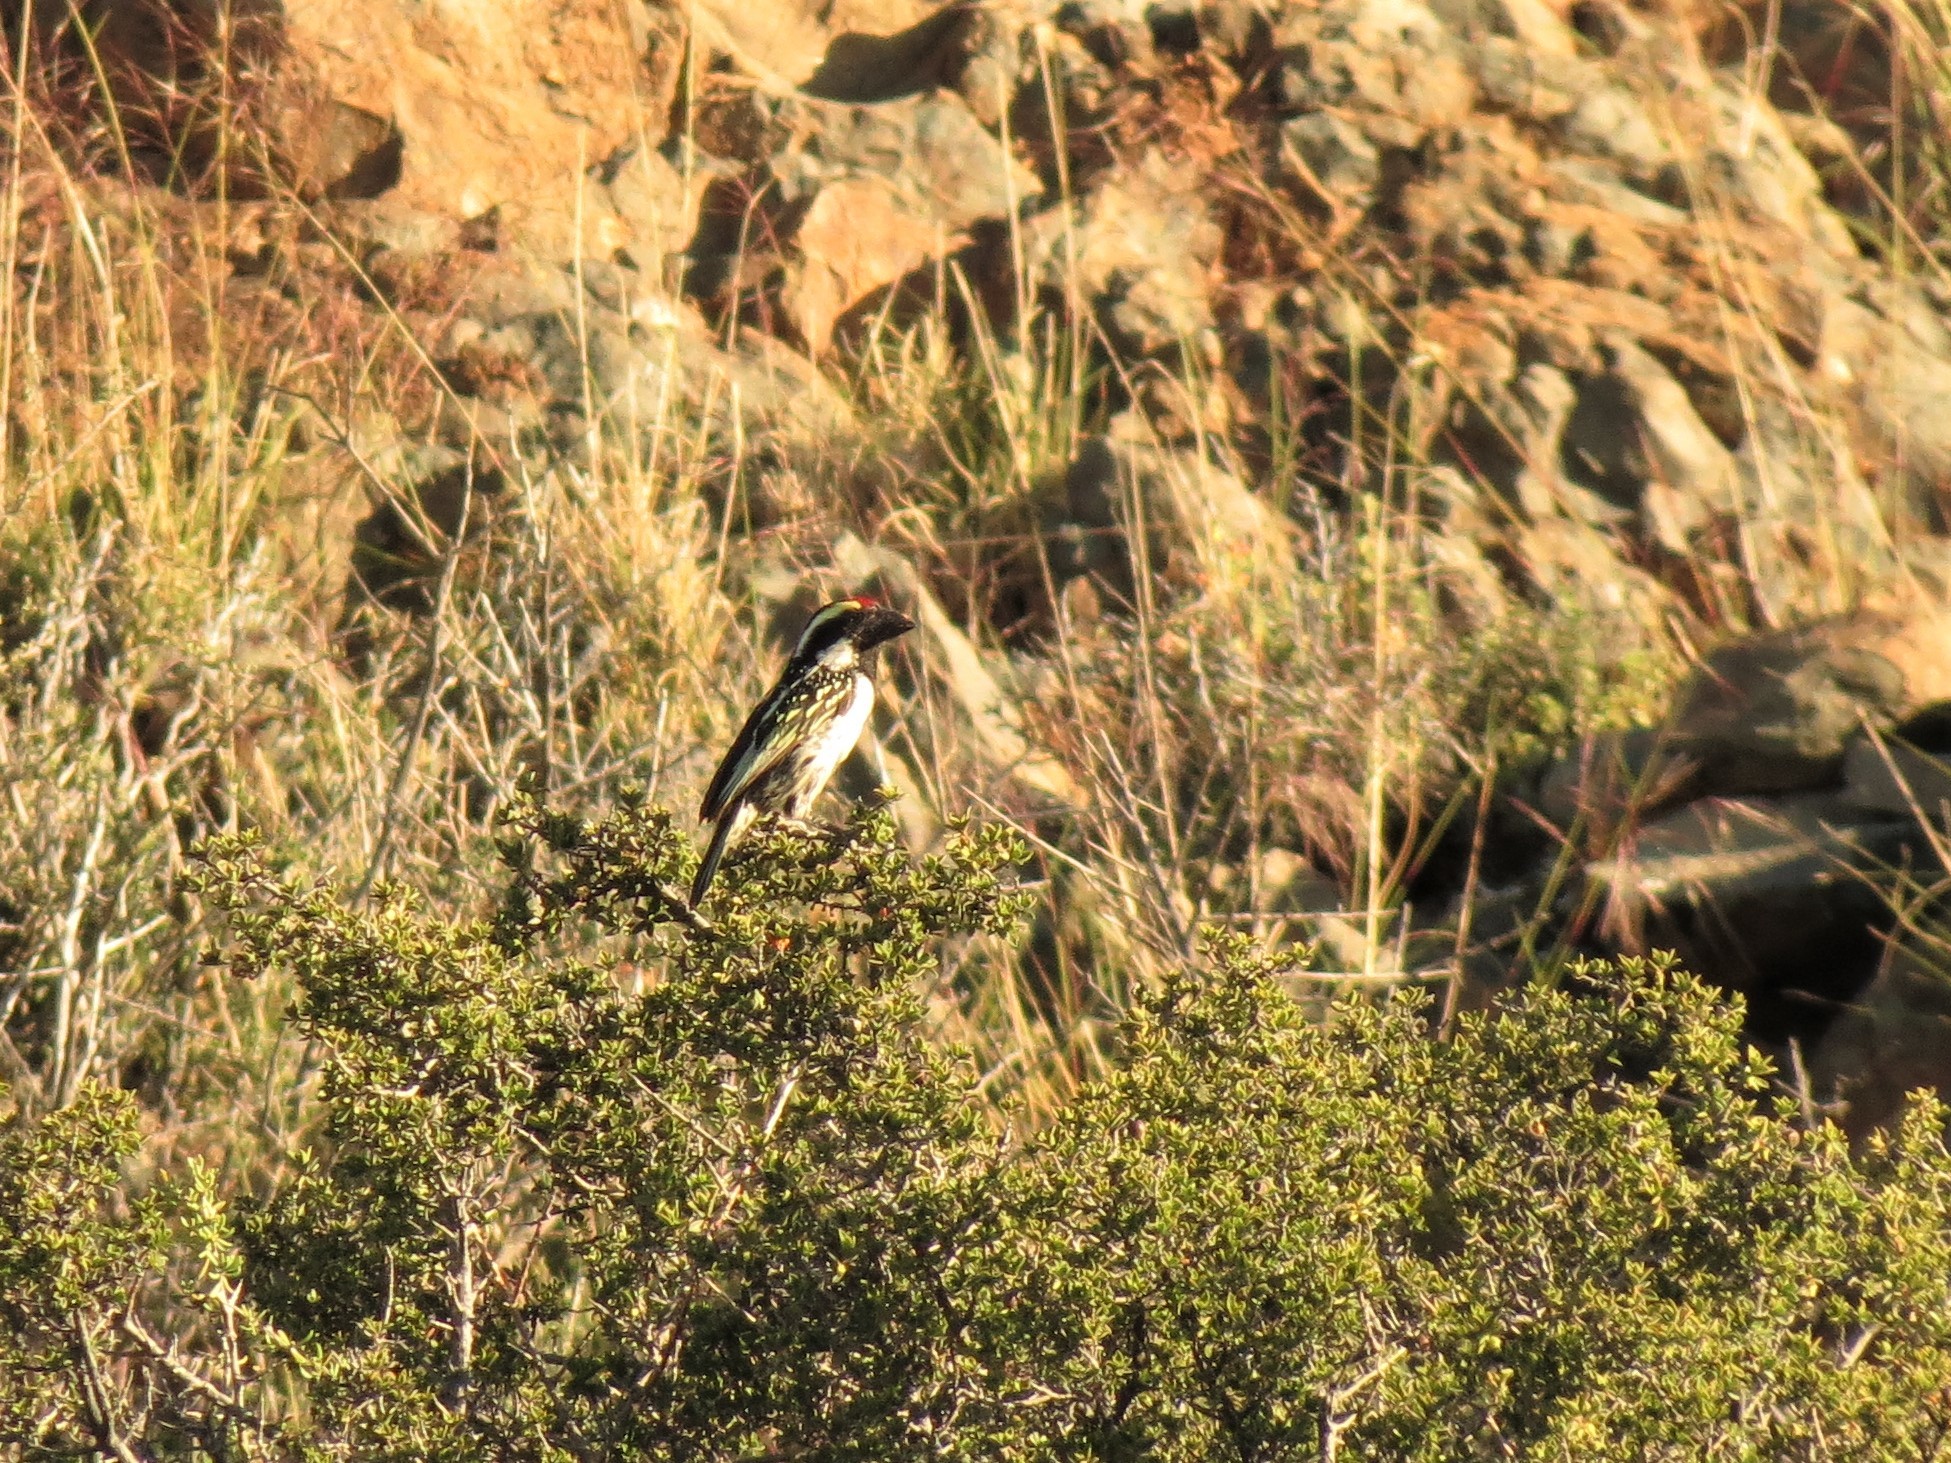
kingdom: Animalia
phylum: Chordata
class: Aves
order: Piciformes
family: Lybiidae
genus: Tricholaema
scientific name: Tricholaema leucomelas
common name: Acacia pied barbet
